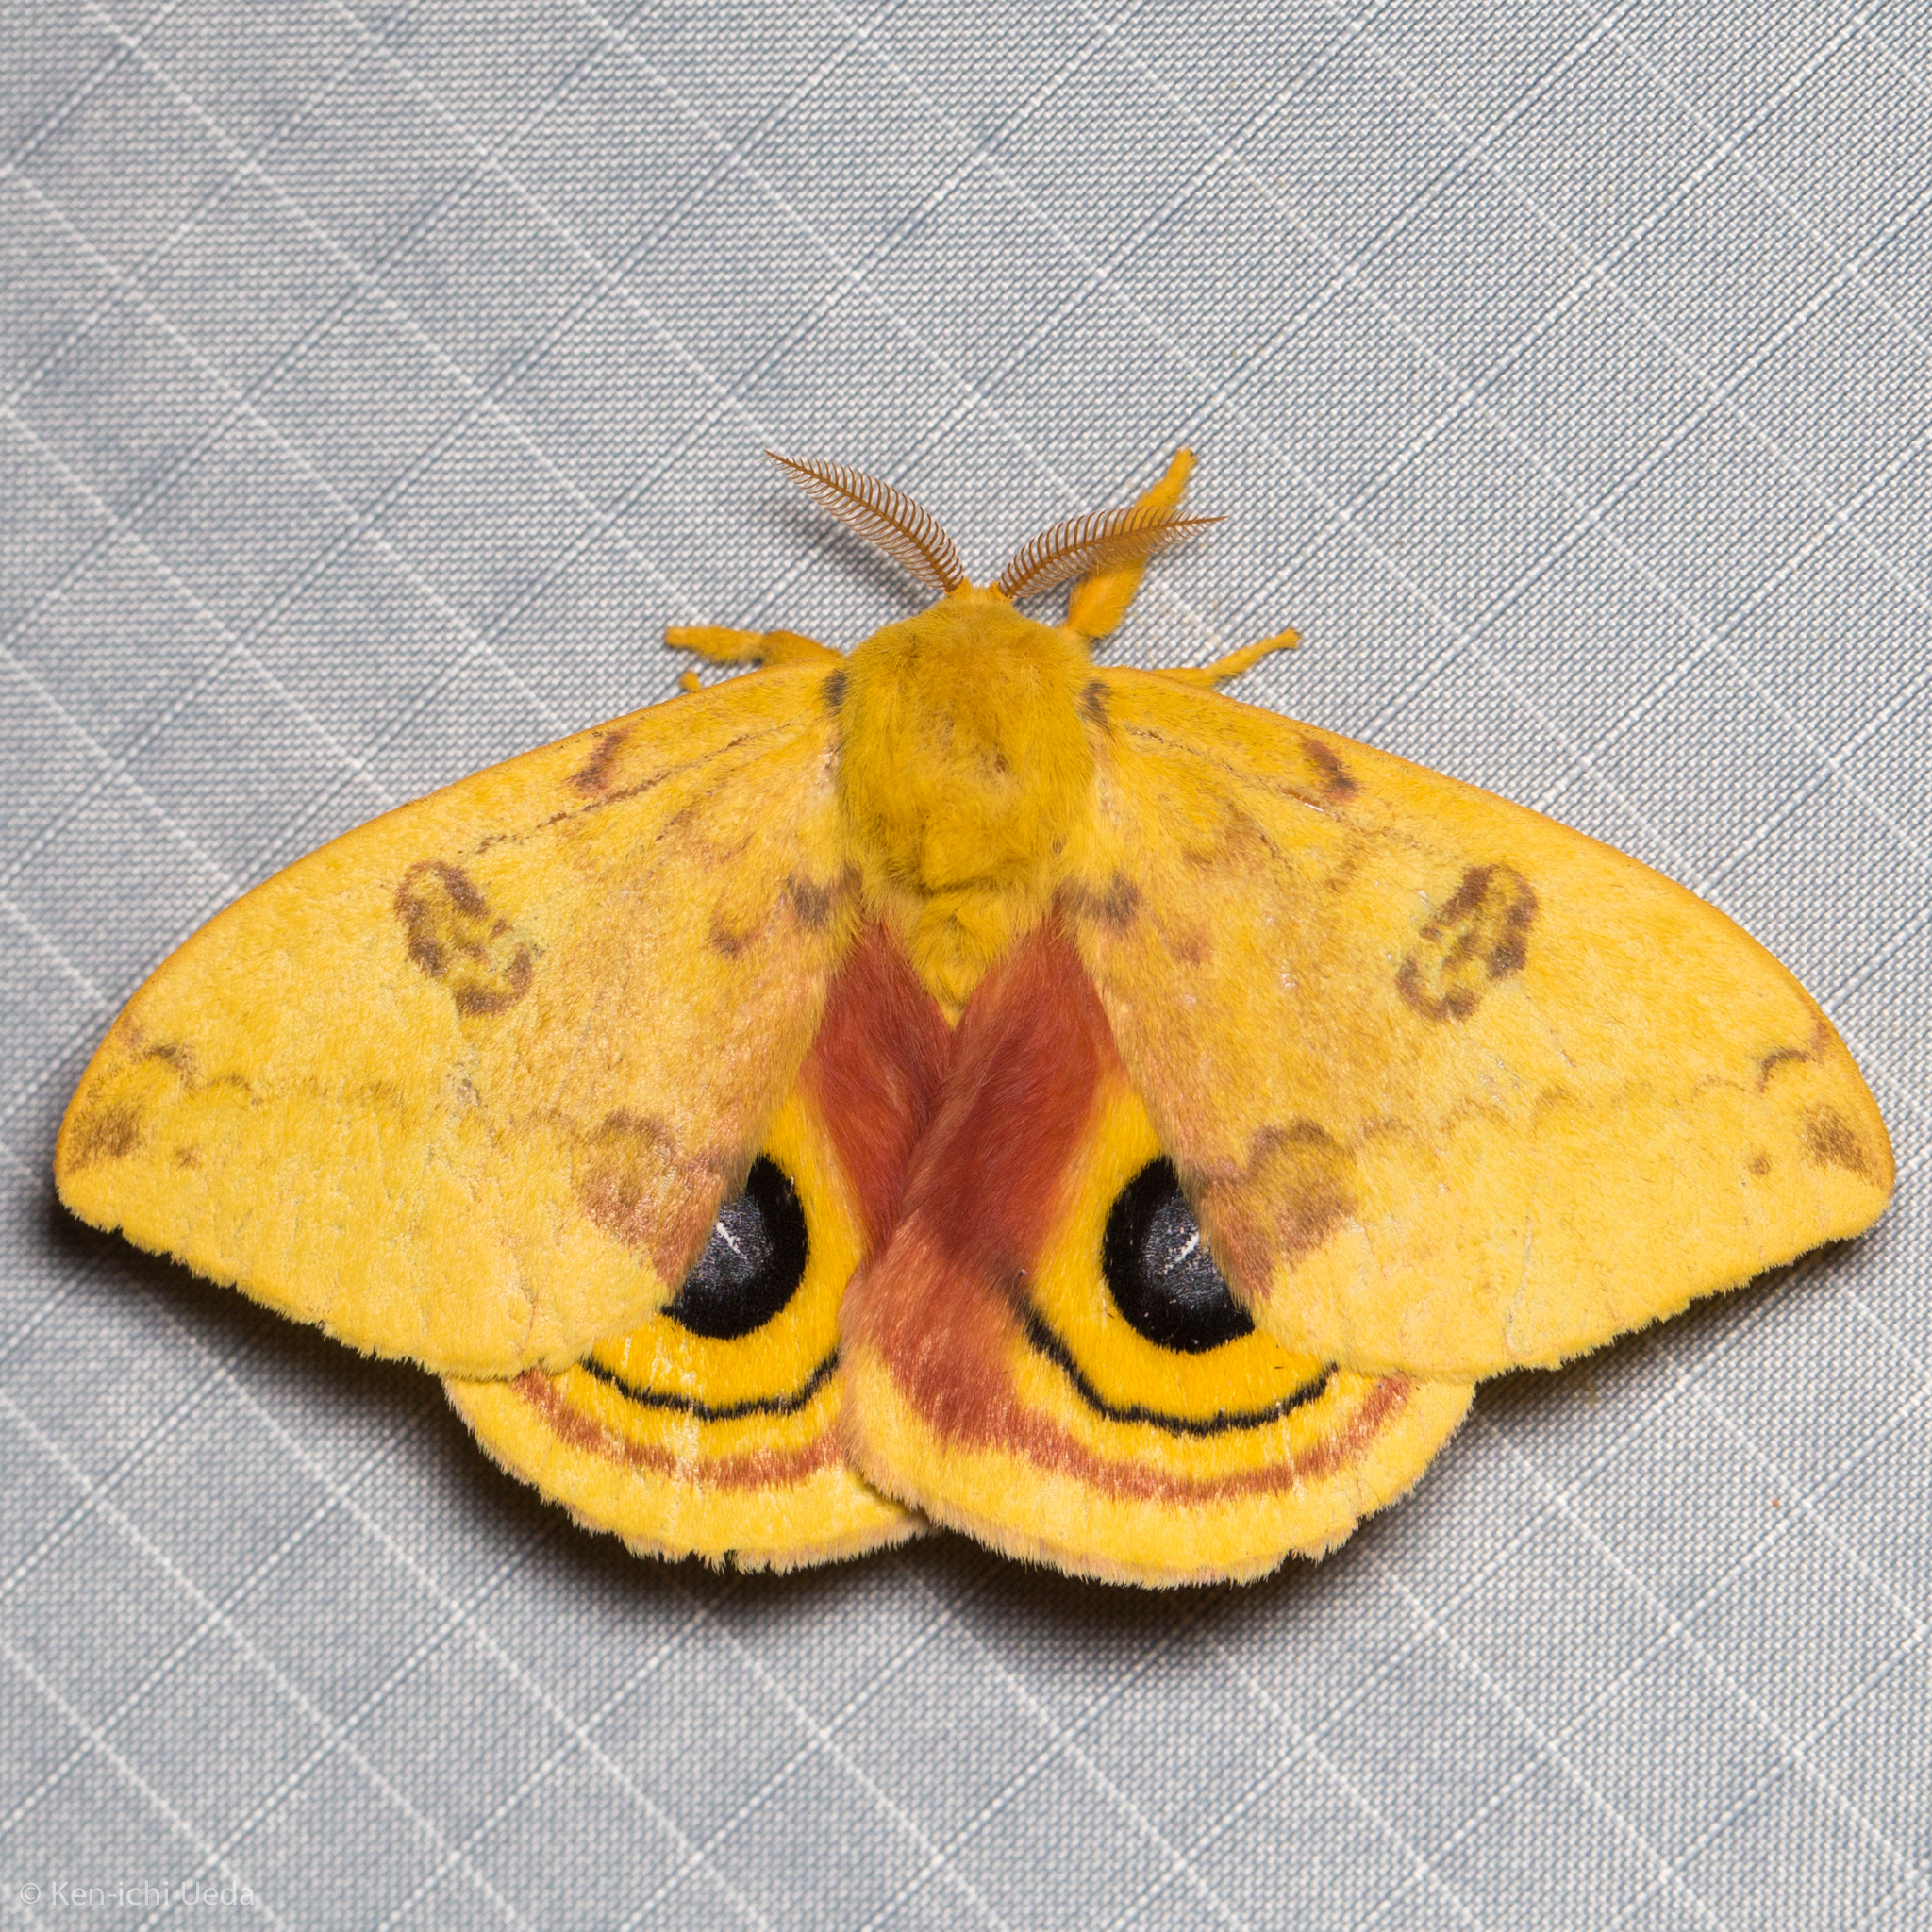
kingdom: Animalia
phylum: Arthropoda
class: Insecta
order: Lepidoptera
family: Saturniidae
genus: Automeris
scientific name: Automeris io
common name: Io moth
